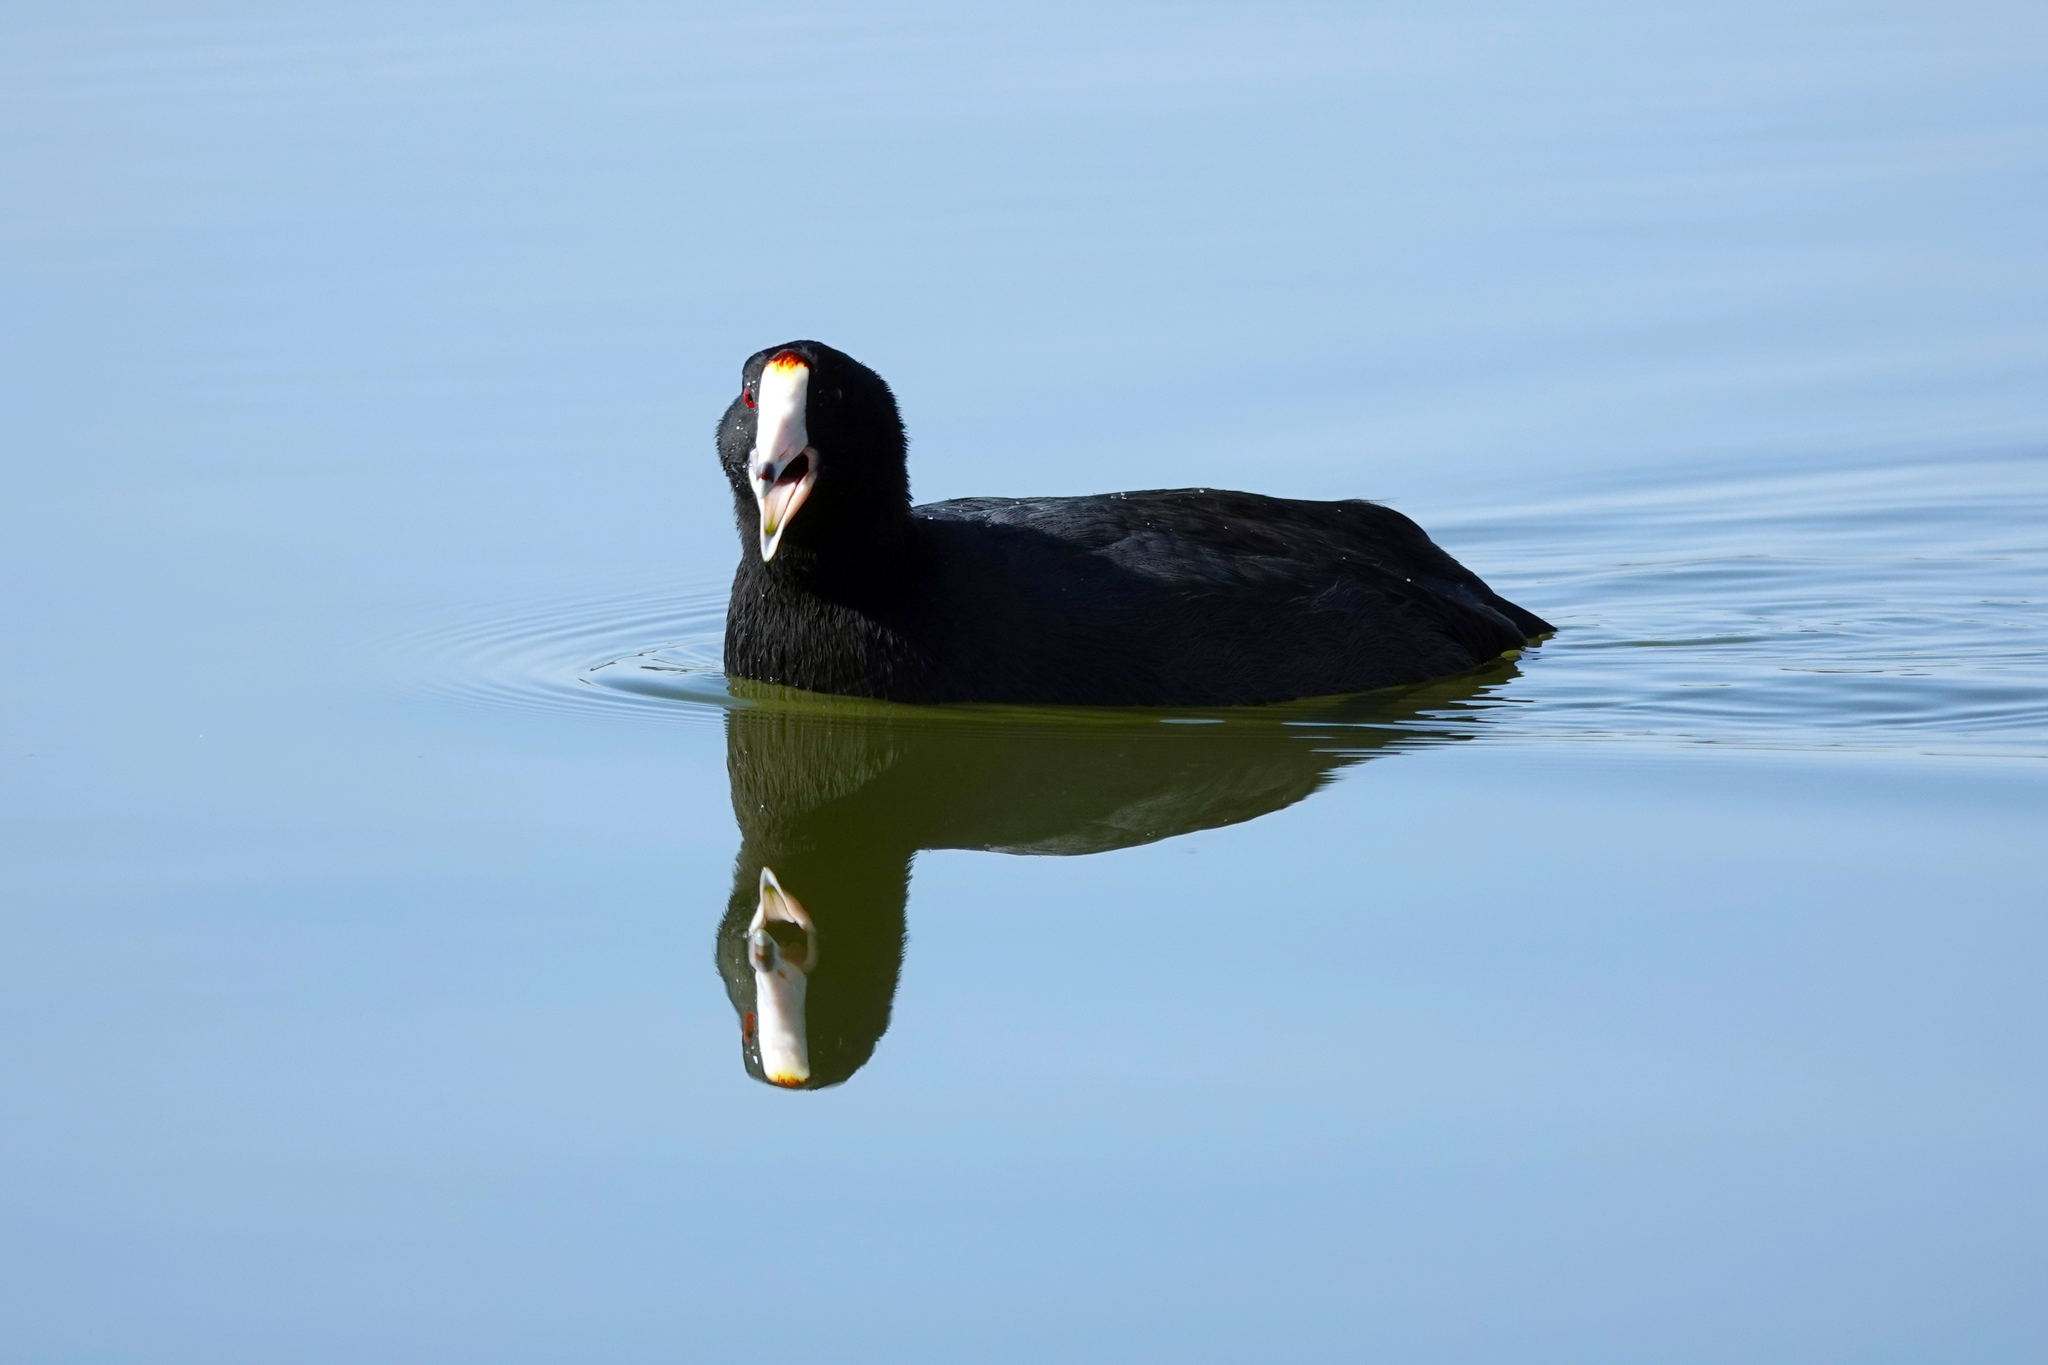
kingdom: Animalia
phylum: Chordata
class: Aves
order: Gruiformes
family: Rallidae
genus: Fulica
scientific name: Fulica americana
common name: American coot
